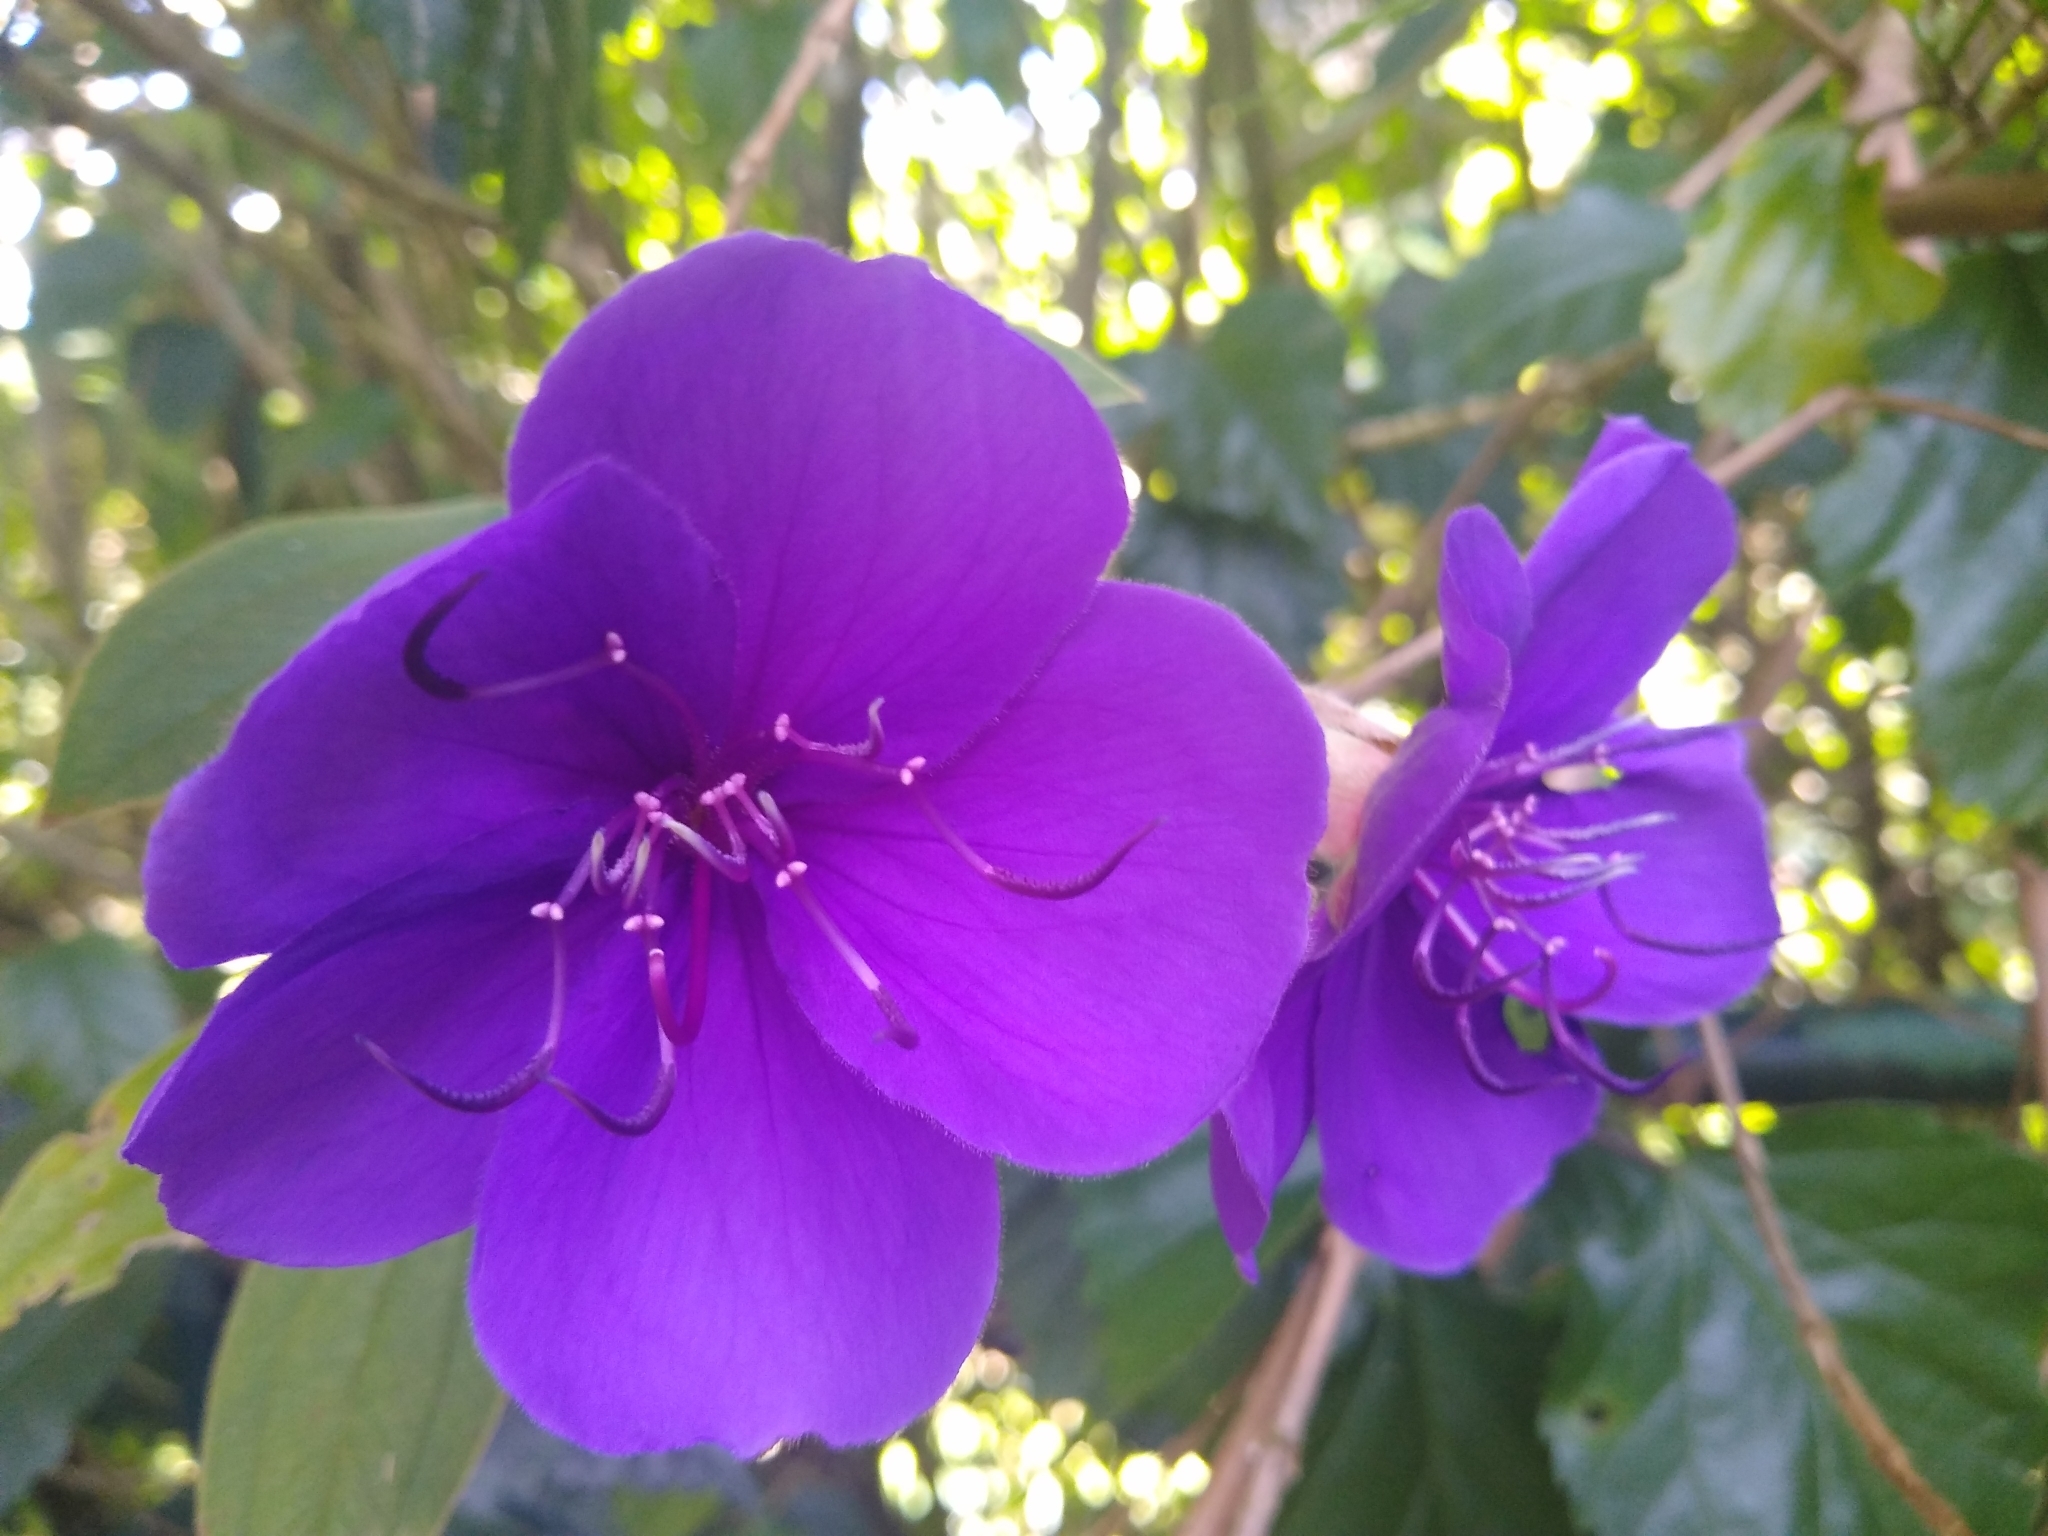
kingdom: Plantae
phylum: Tracheophyta
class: Magnoliopsida
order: Myrtales
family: Melastomataceae
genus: Pleroma
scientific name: Pleroma urvilleanum
